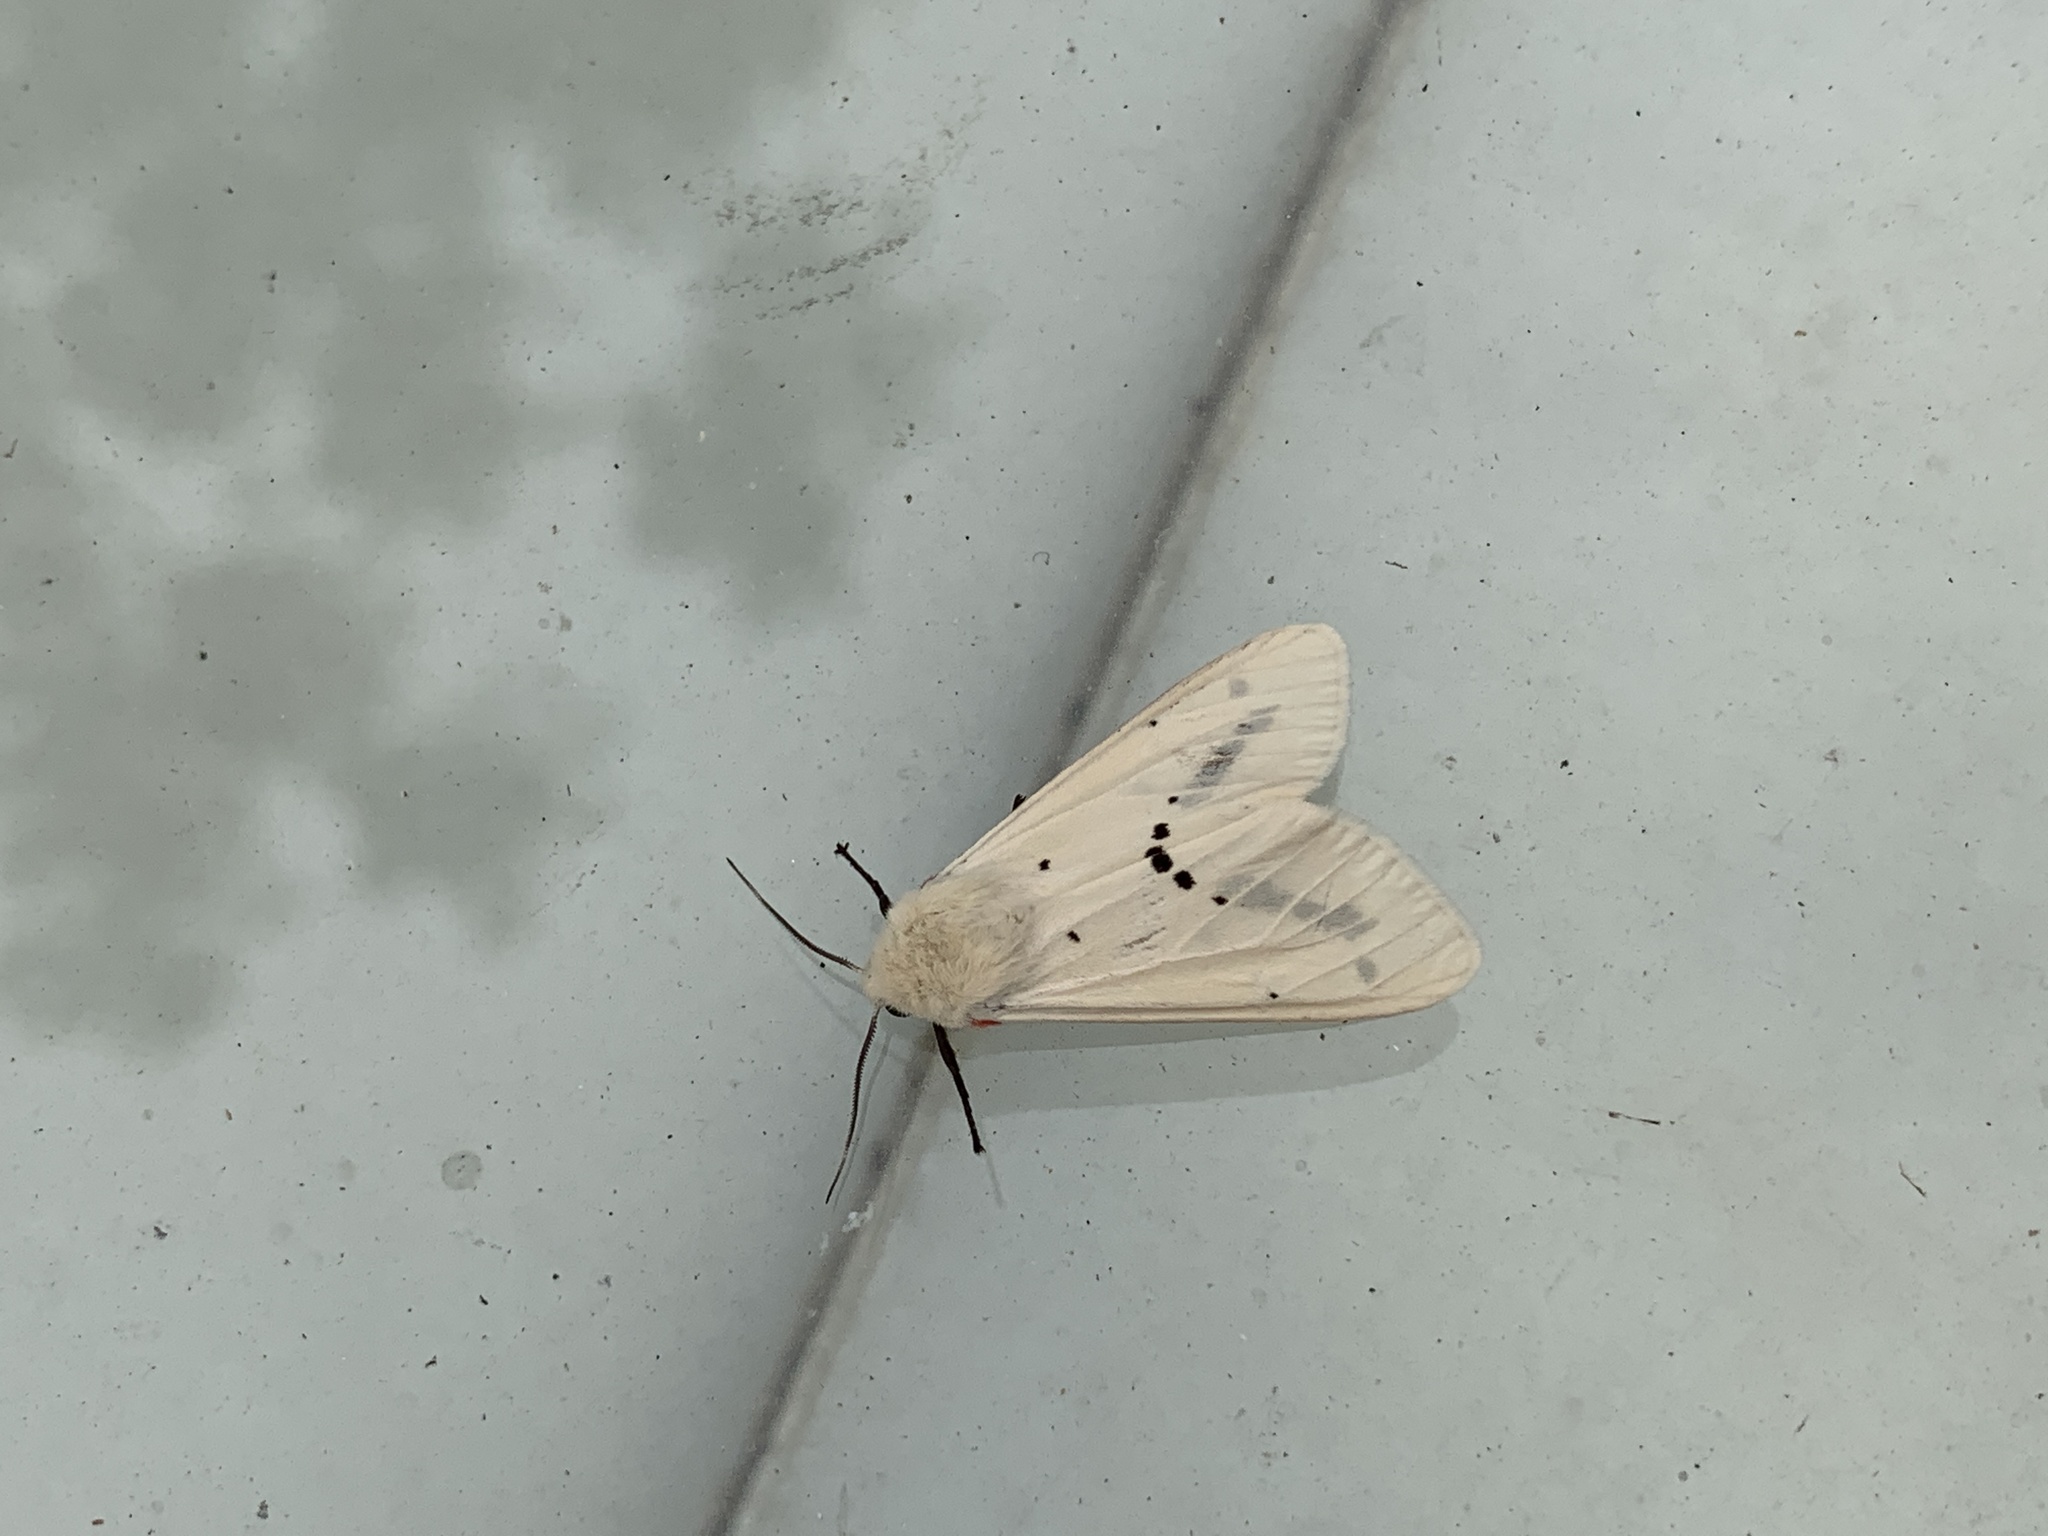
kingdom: Animalia
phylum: Arthropoda
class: Insecta
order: Lepidoptera
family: Erebidae
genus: Spilarctia
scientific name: Spilarctia subcarnea
